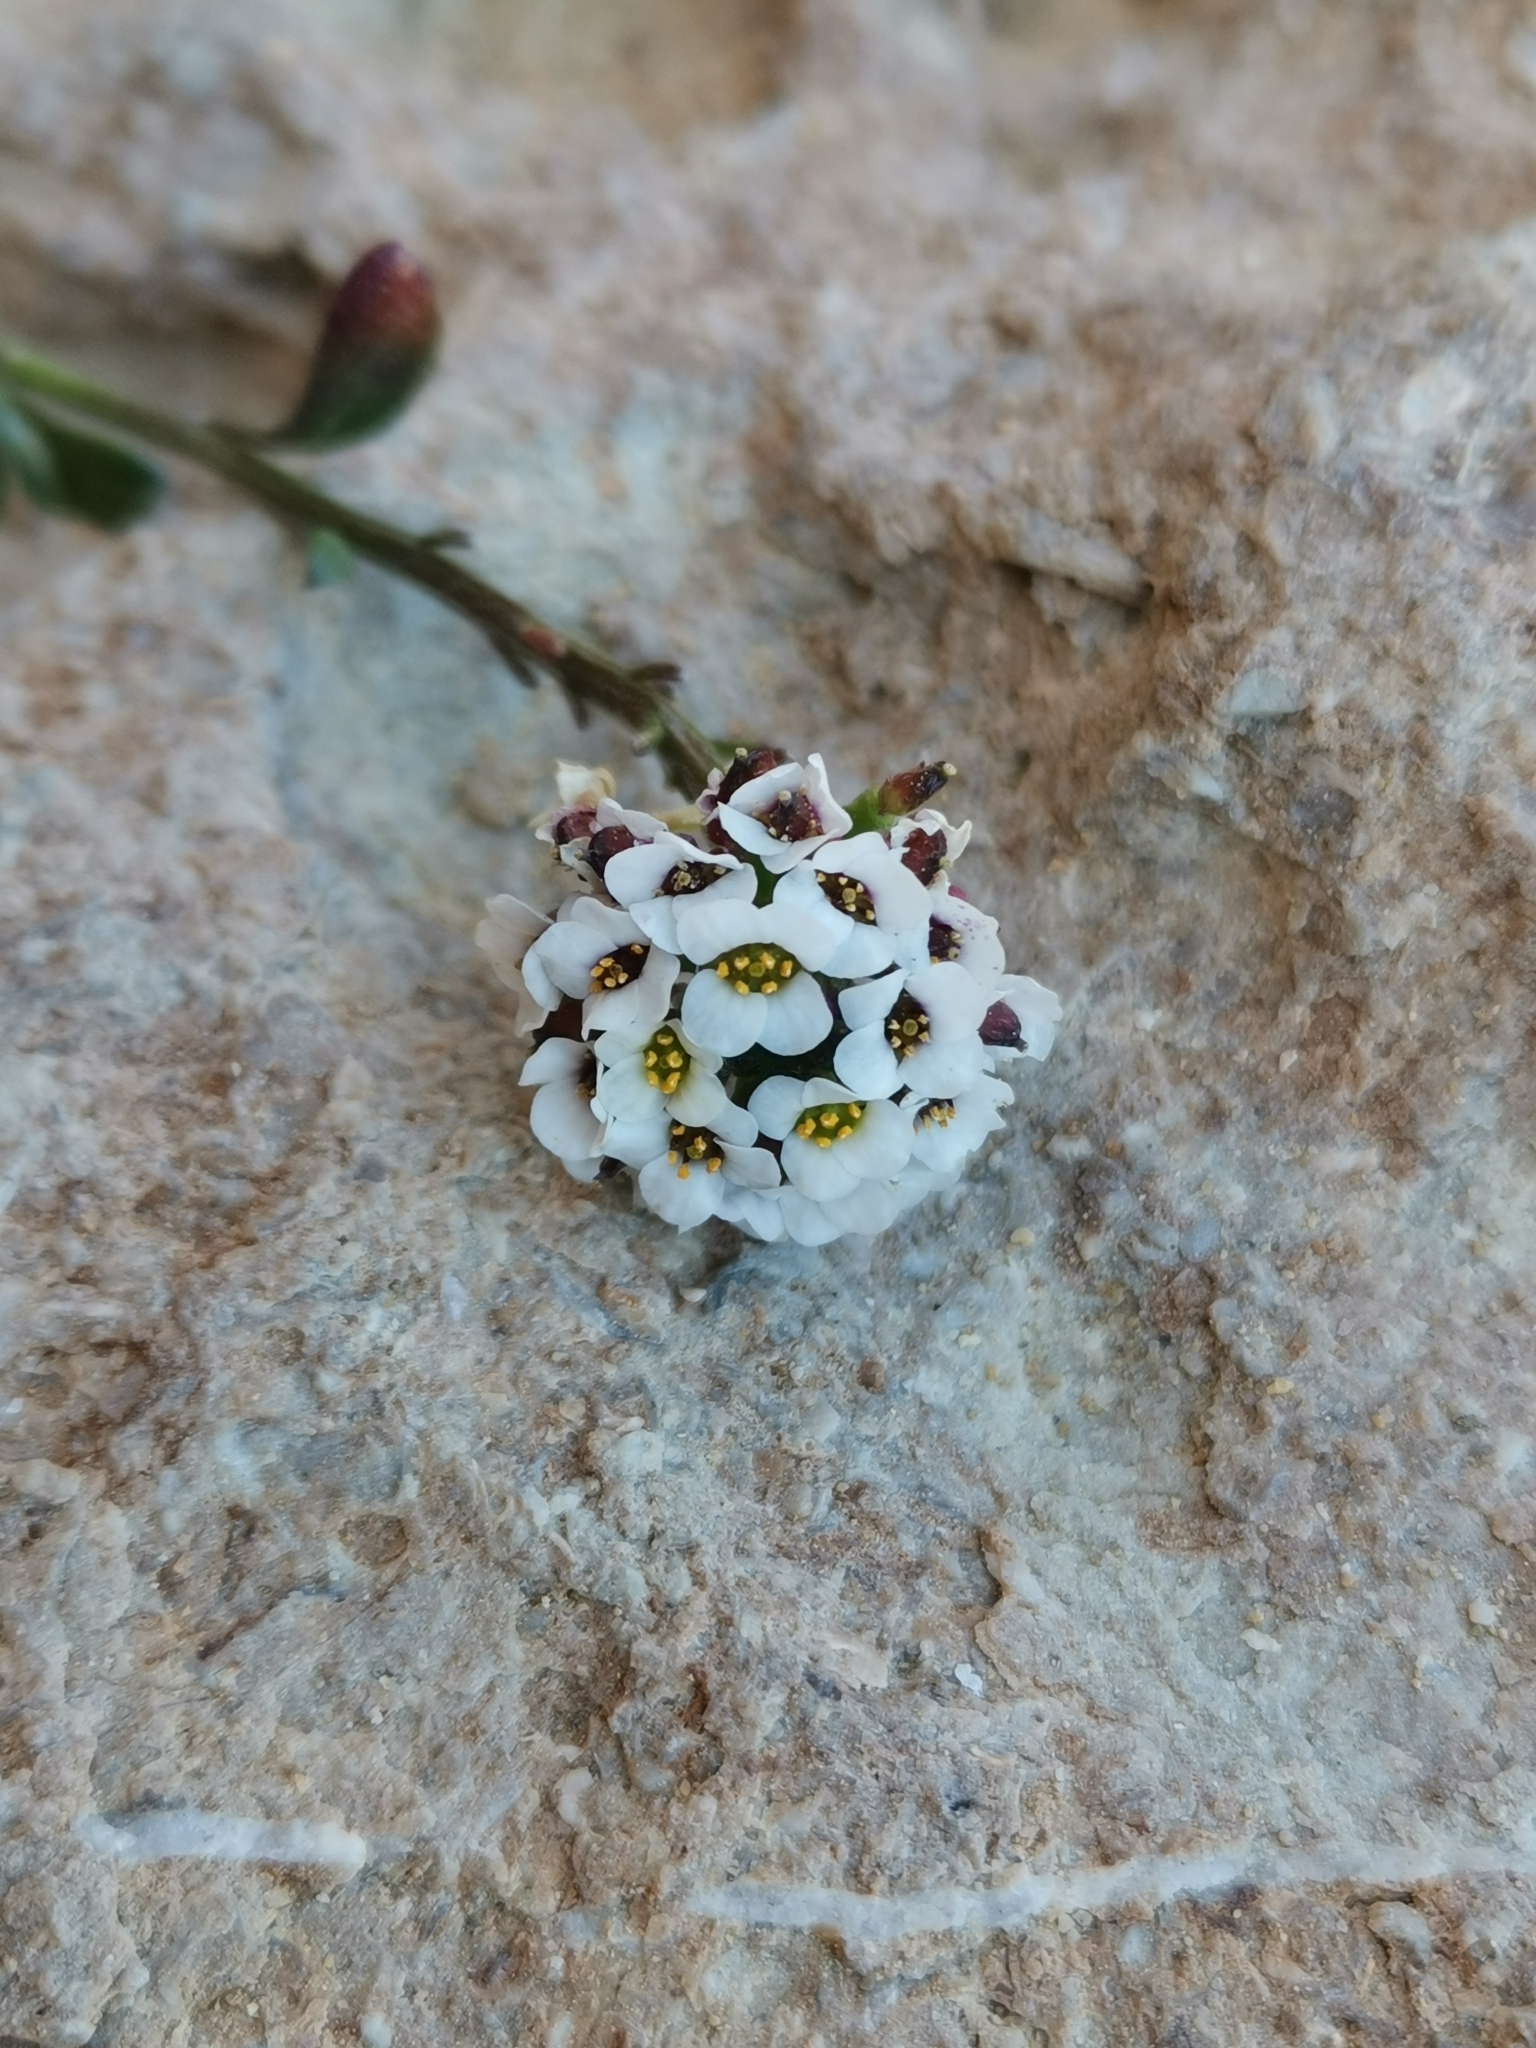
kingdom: Plantae
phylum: Tracheophyta
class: Magnoliopsida
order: Brassicales
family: Brassicaceae
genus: Lobularia
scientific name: Lobularia maritima
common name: Sweet alison
